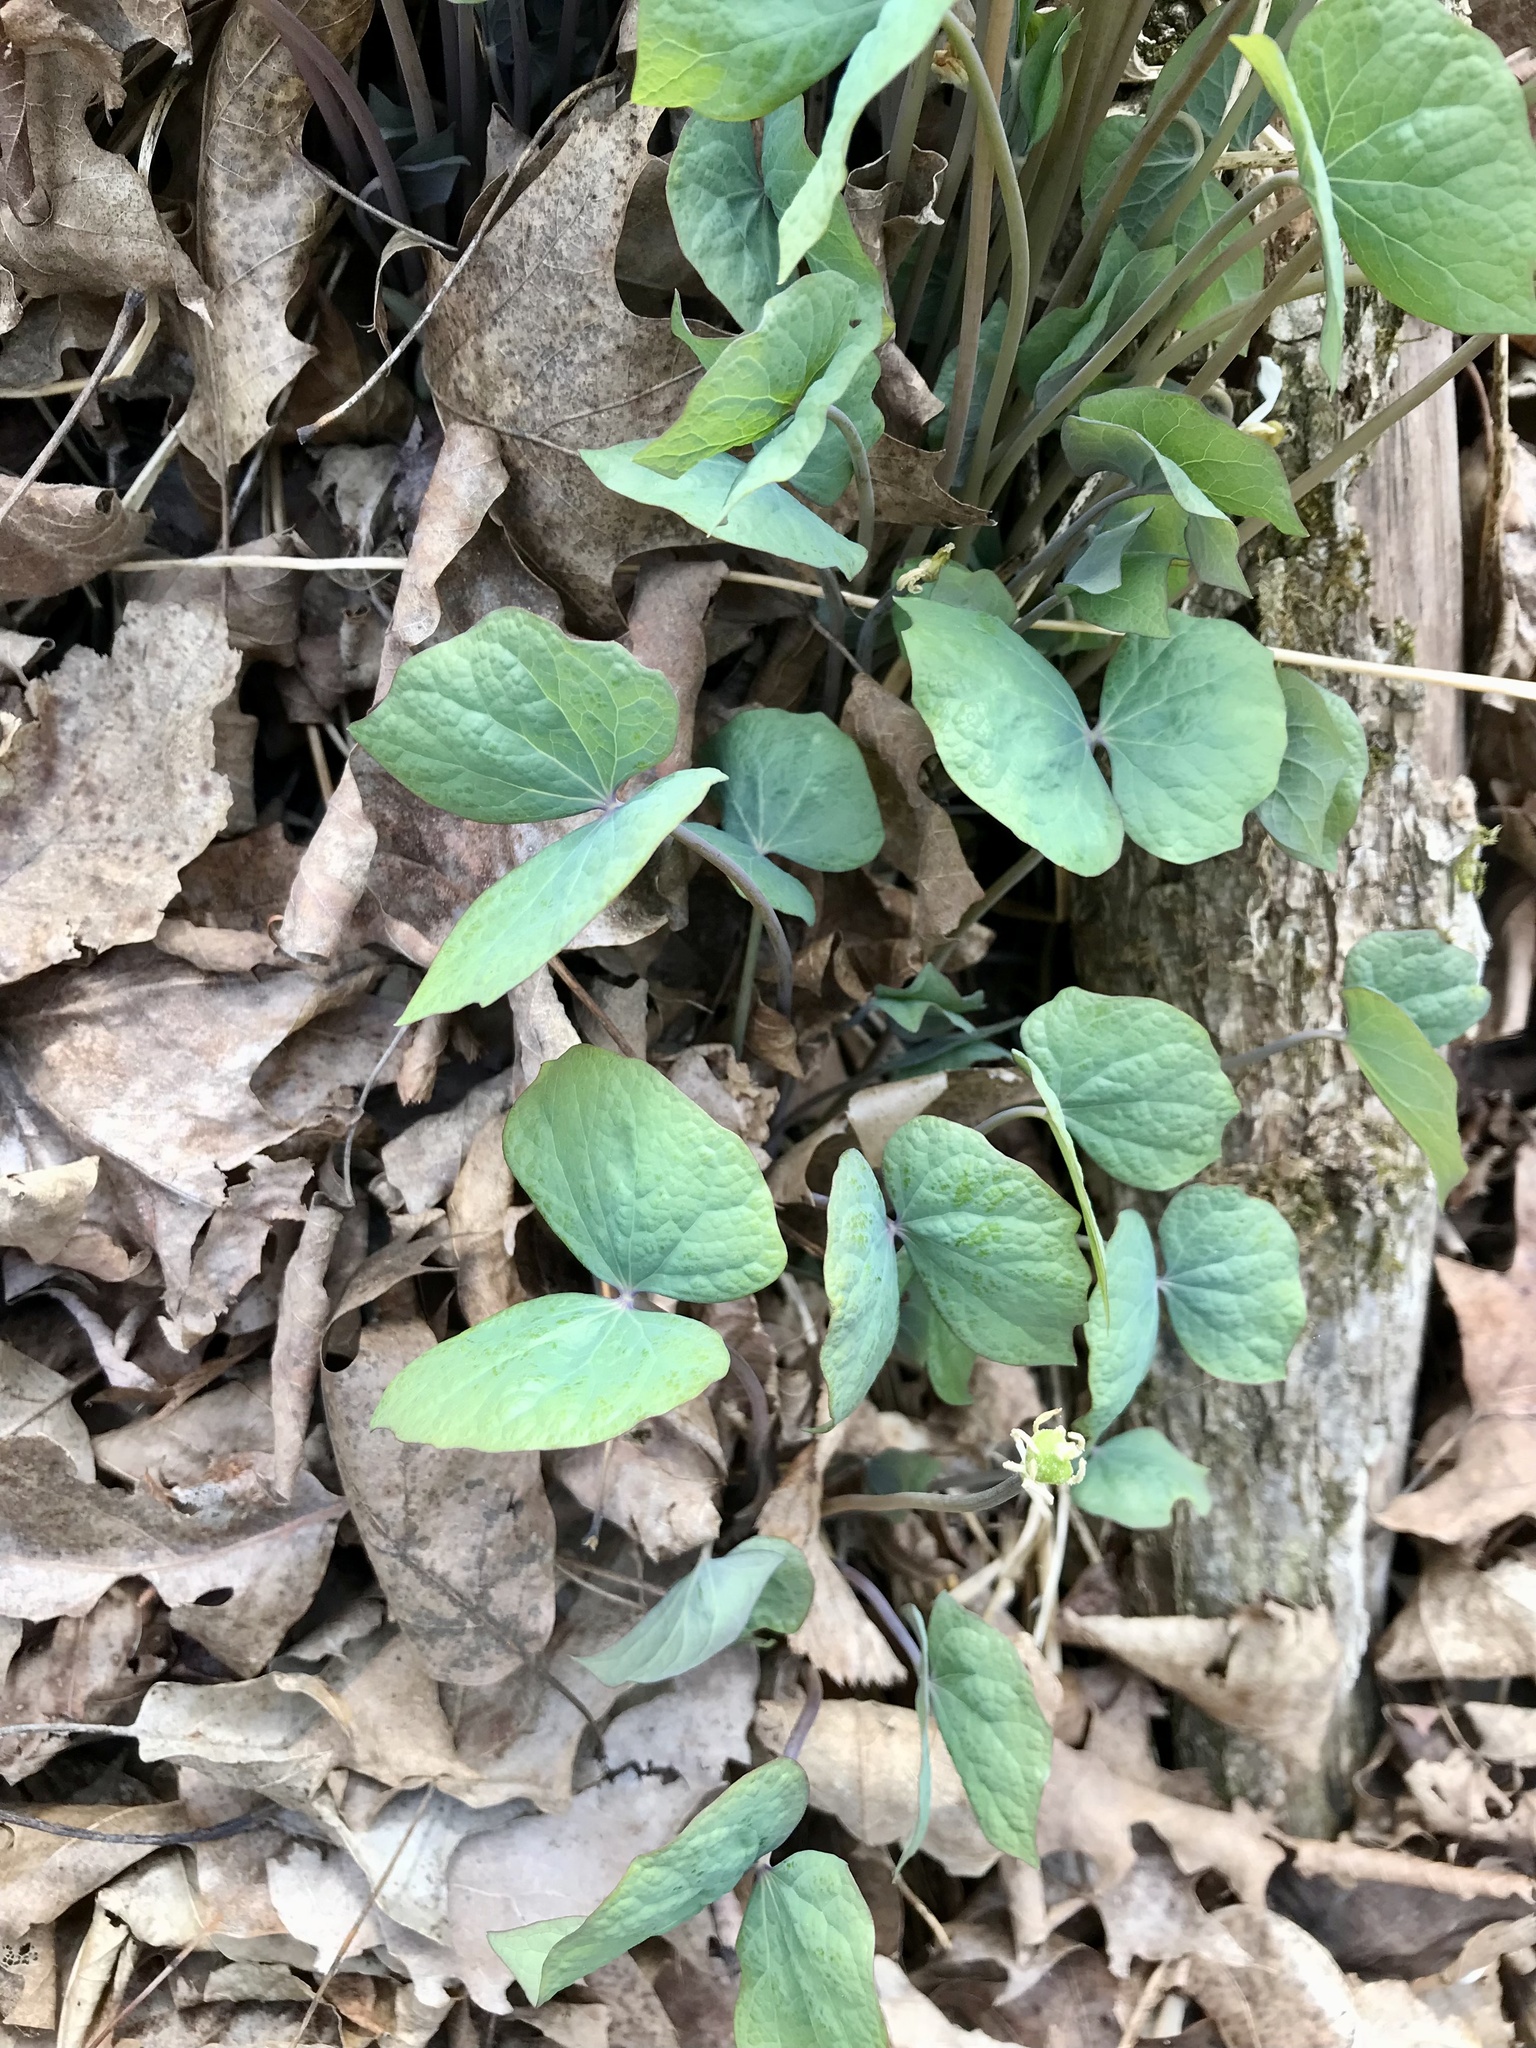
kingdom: Plantae
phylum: Tracheophyta
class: Magnoliopsida
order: Ranunculales
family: Berberidaceae
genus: Jeffersonia
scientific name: Jeffersonia diphylla
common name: Rheumatism-root
